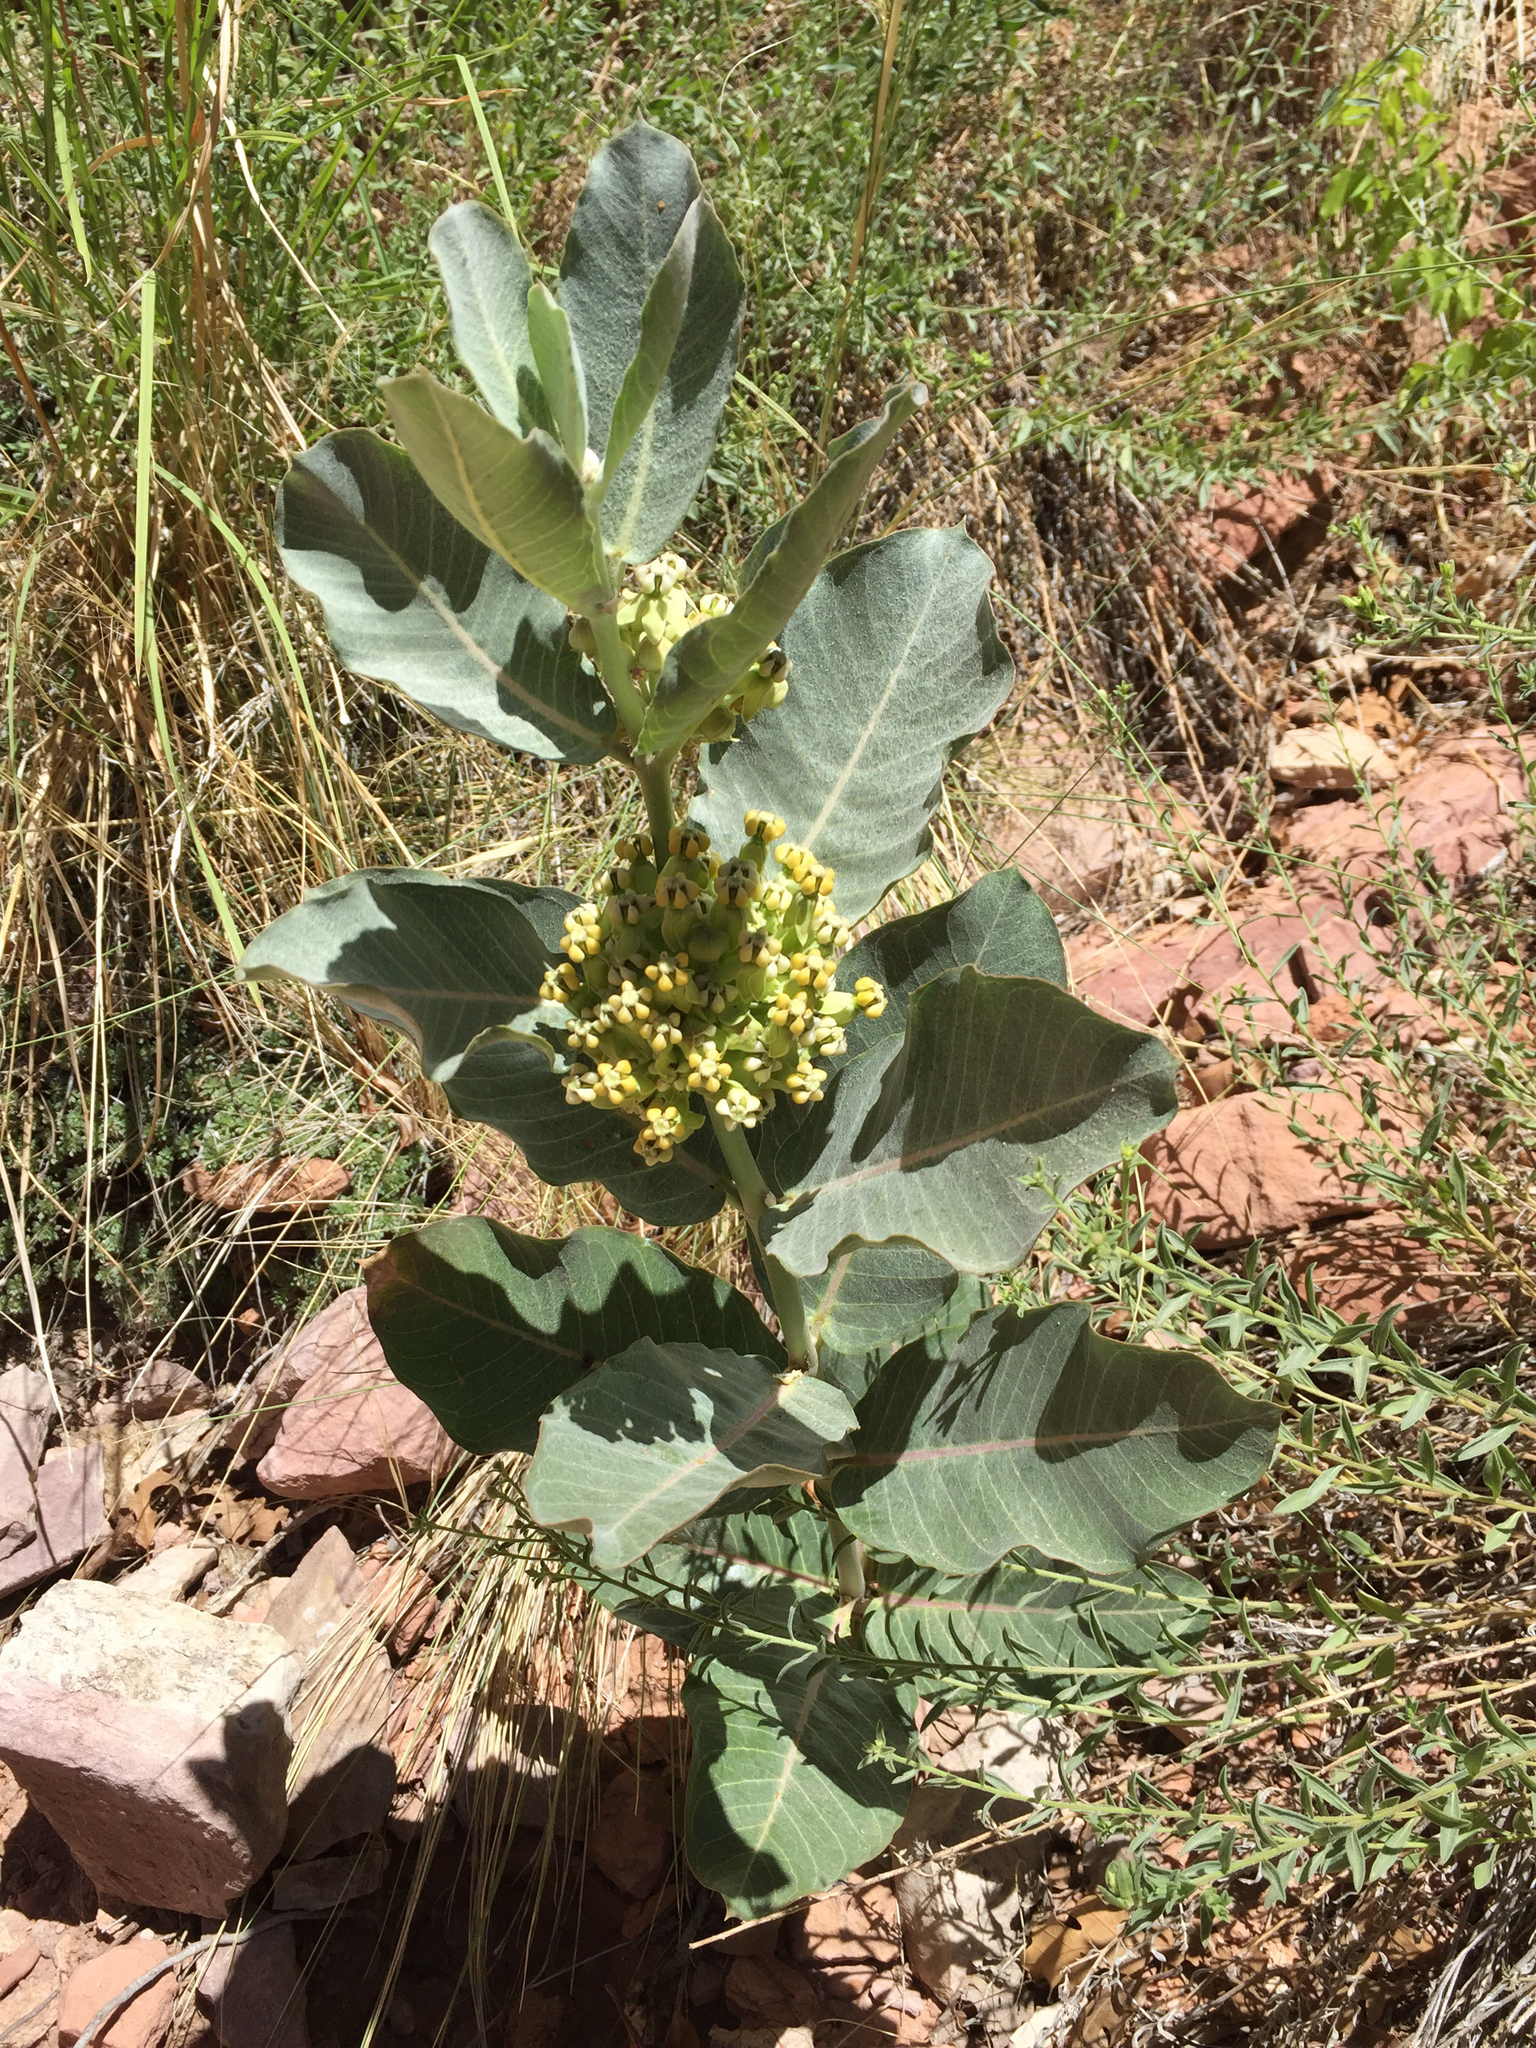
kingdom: Plantae
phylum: Tracheophyta
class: Magnoliopsida
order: Gentianales
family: Apocynaceae
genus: Asclepias
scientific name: Asclepias latifolia
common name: Broadleaf milkweed
